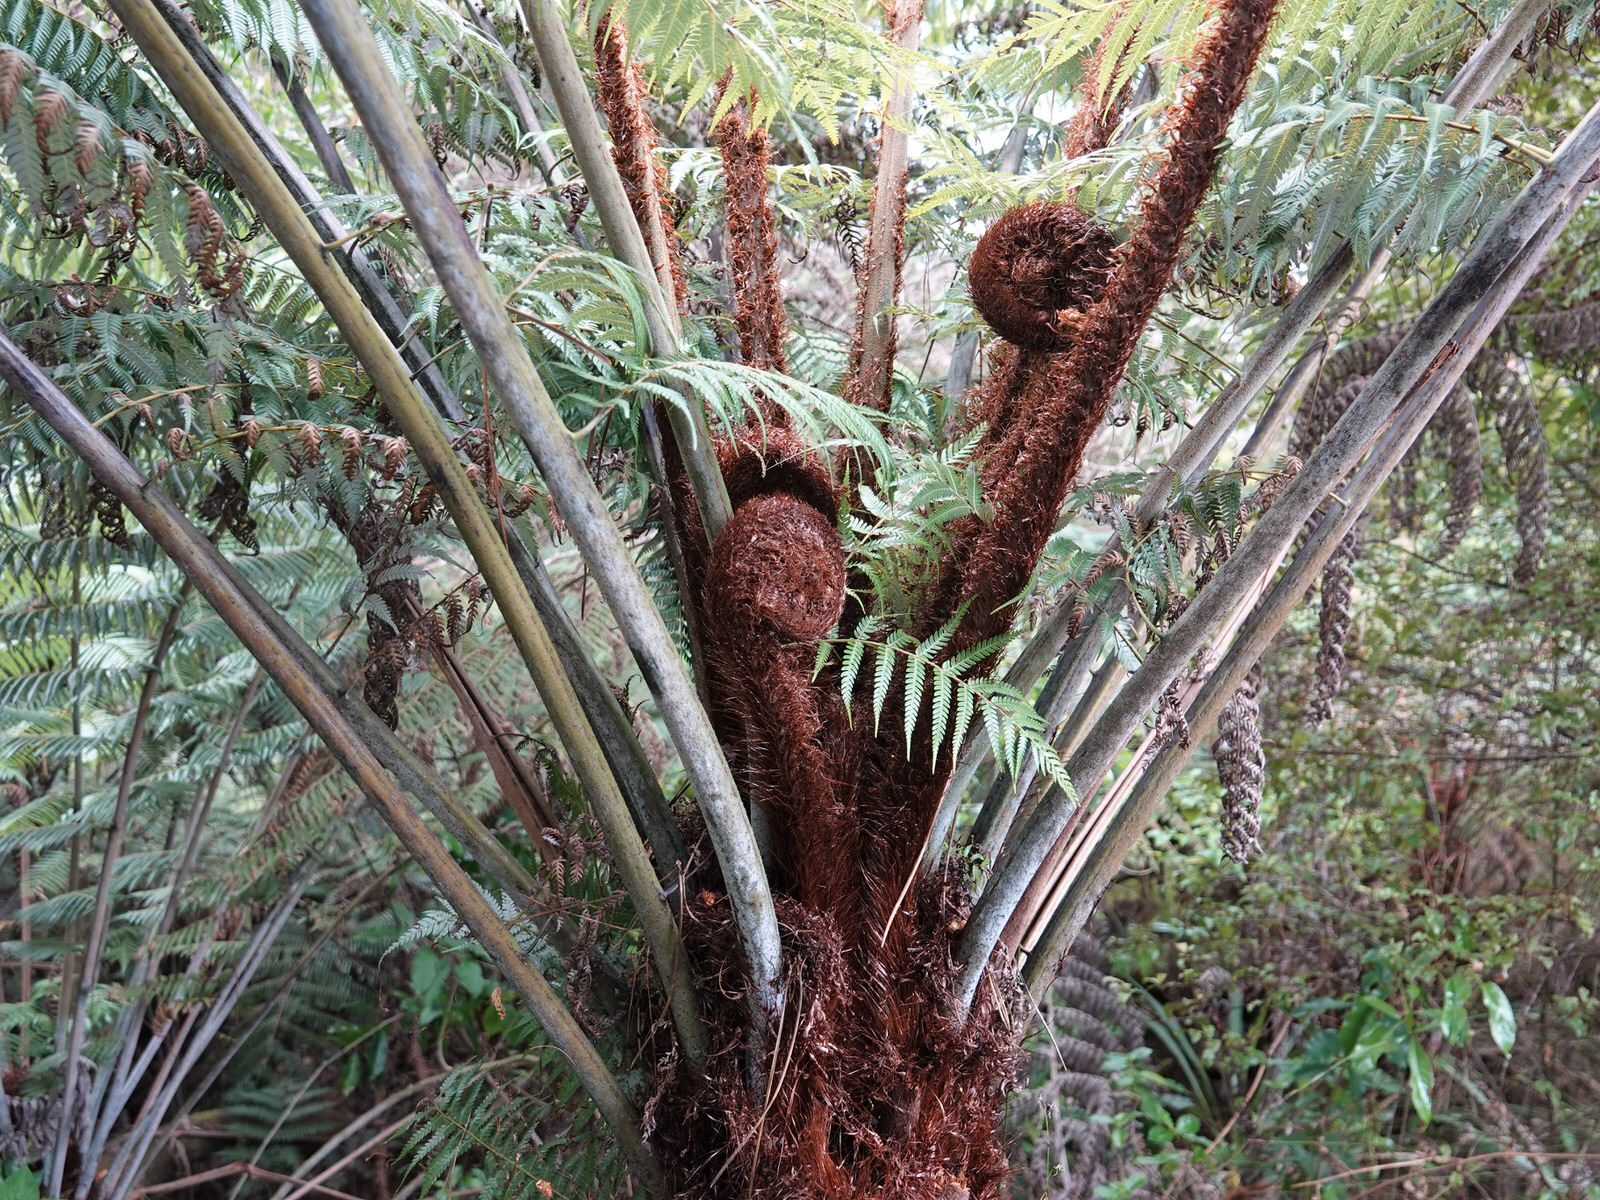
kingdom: Plantae
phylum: Tracheophyta
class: Polypodiopsida
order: Cyatheales
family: Cyatheaceae
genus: Alsophila
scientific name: Alsophila dealbata
